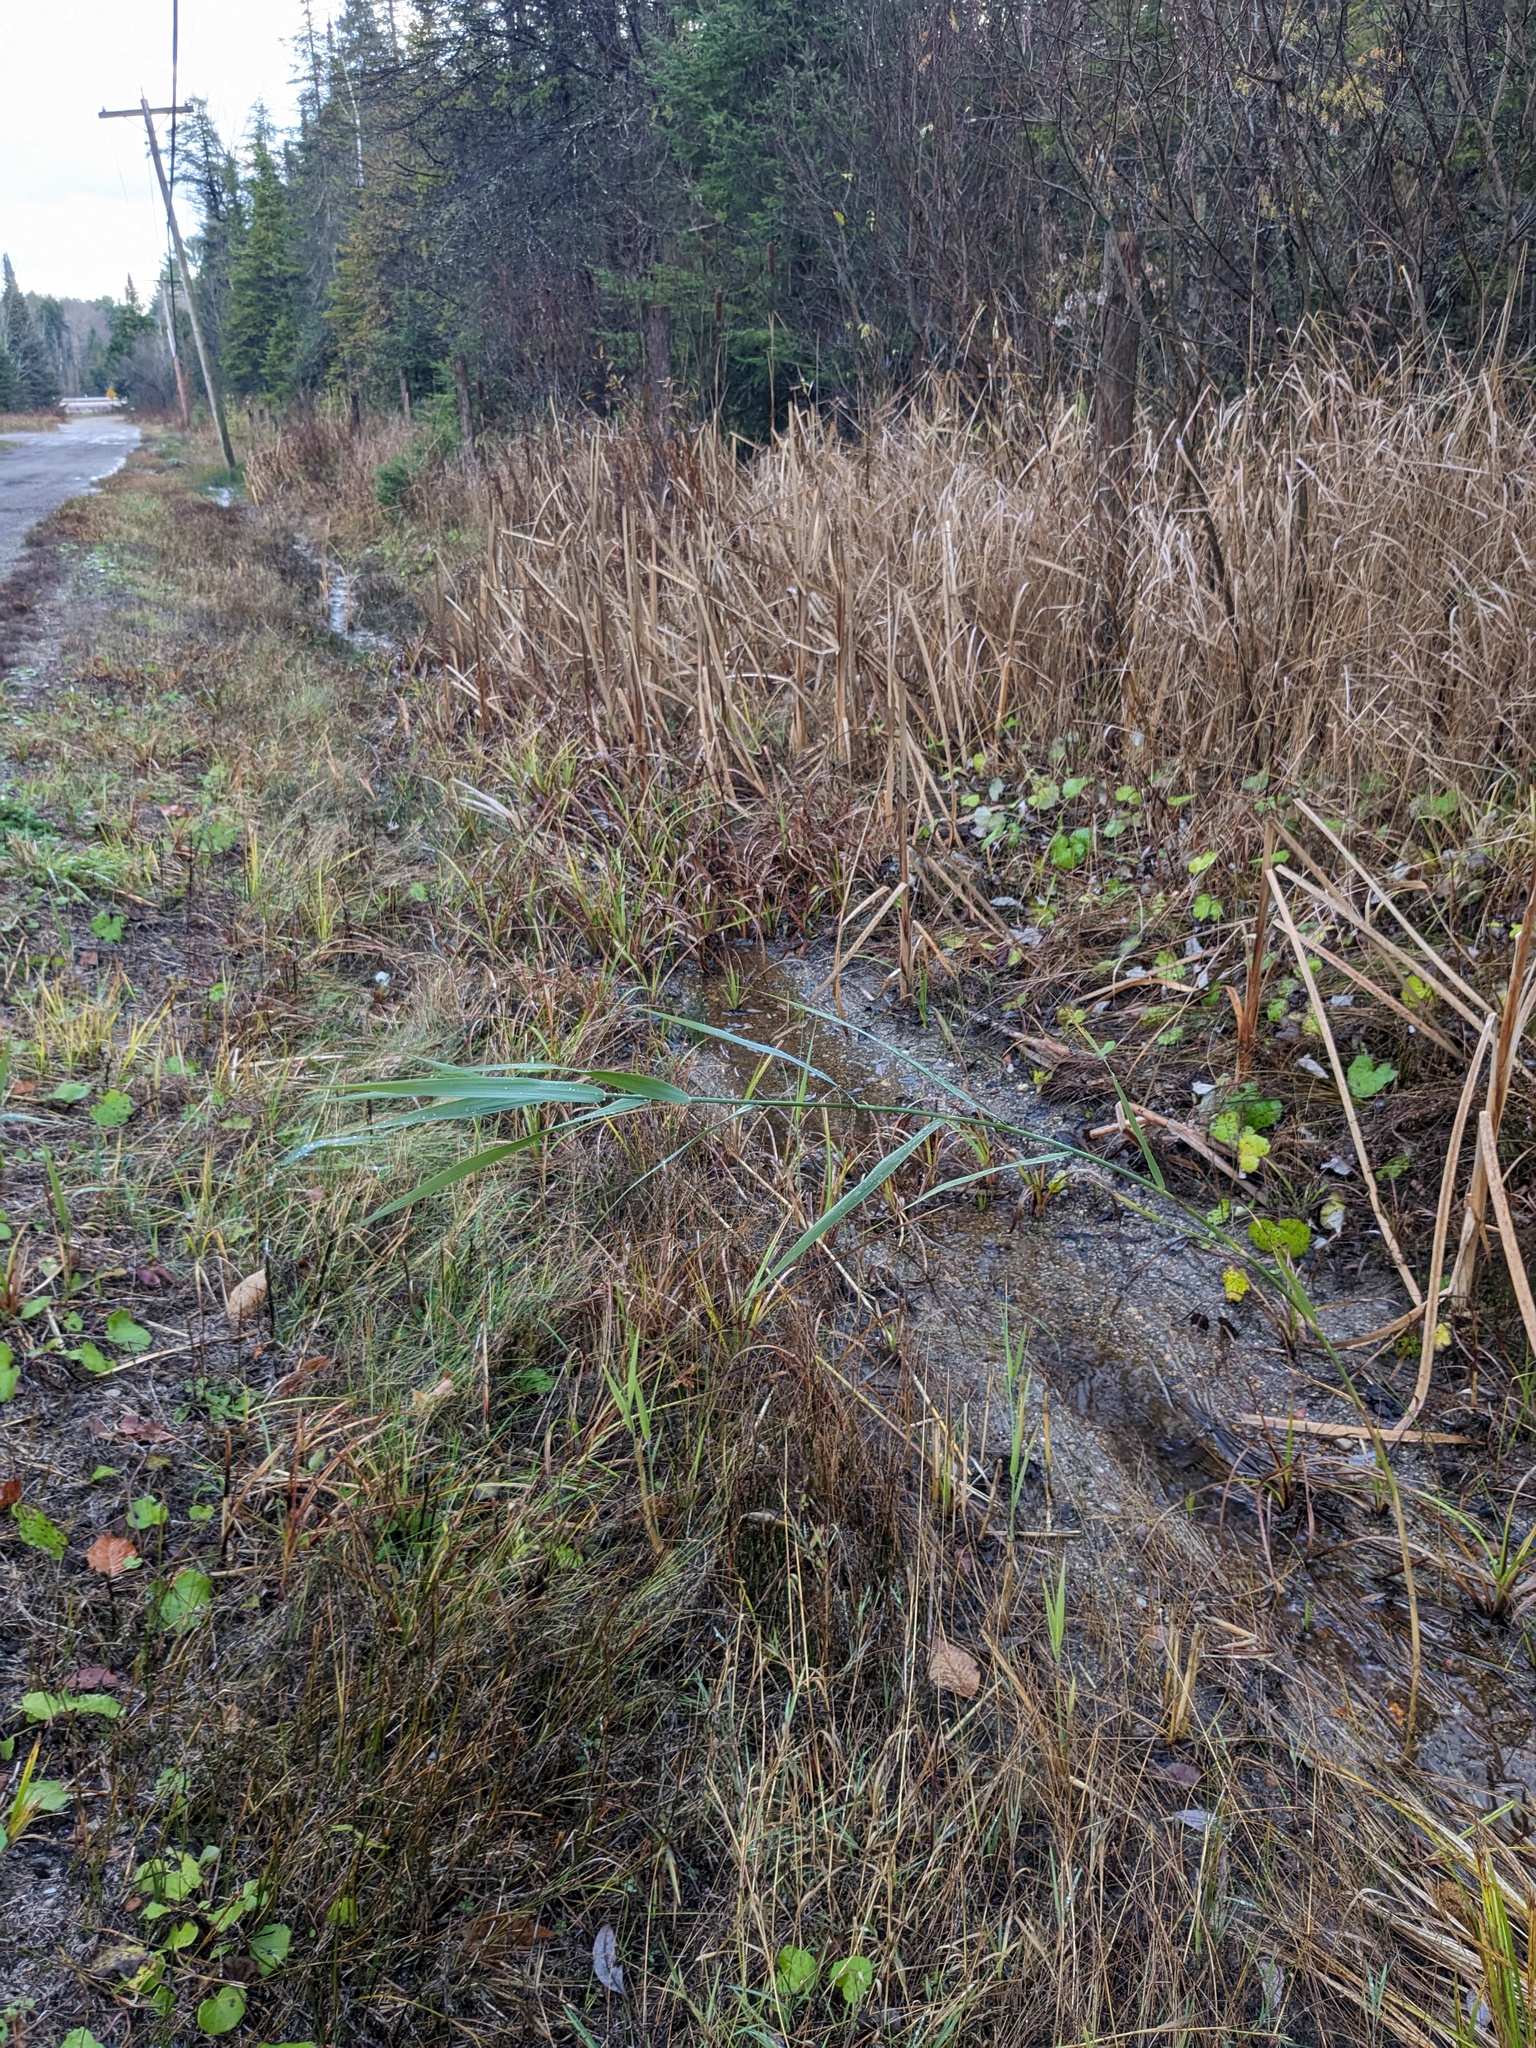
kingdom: Plantae
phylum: Tracheophyta
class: Liliopsida
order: Poales
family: Poaceae
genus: Phragmites
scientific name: Phragmites australis
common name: Common reed
